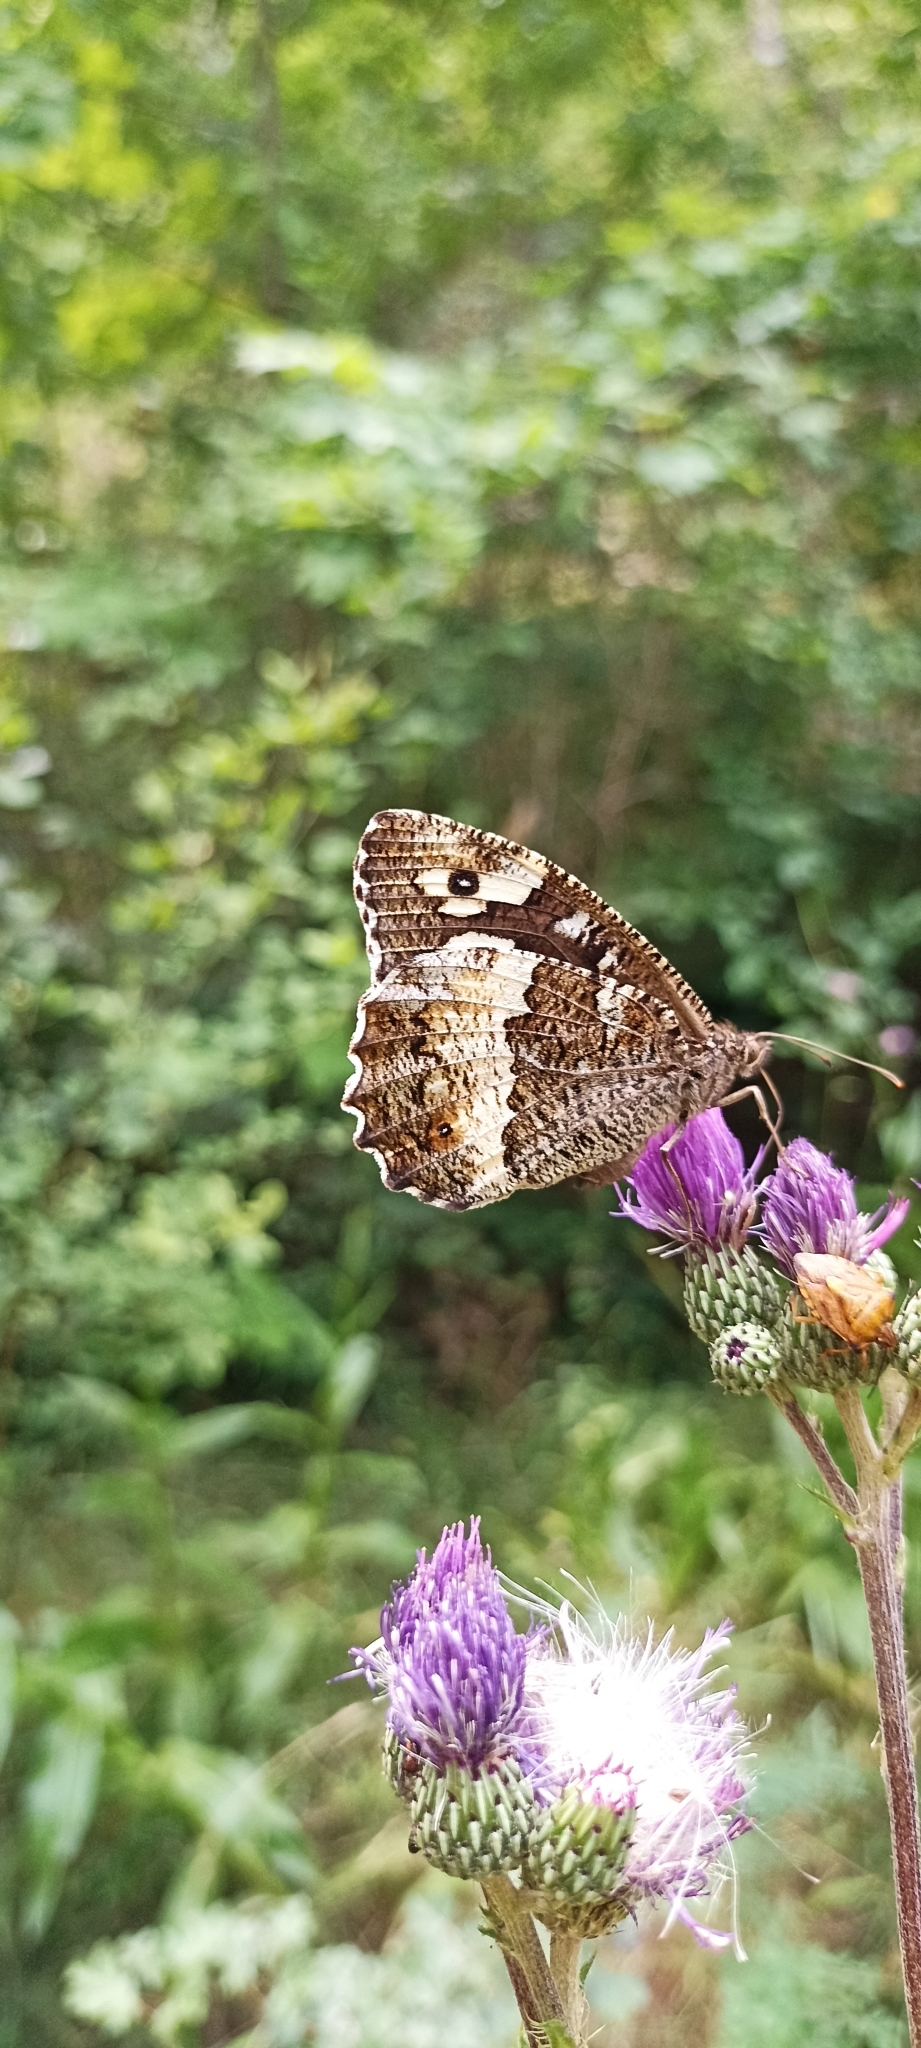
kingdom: Animalia
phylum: Arthropoda
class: Insecta
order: Lepidoptera
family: Lycaenidae
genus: Loweia
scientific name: Loweia tityrus
